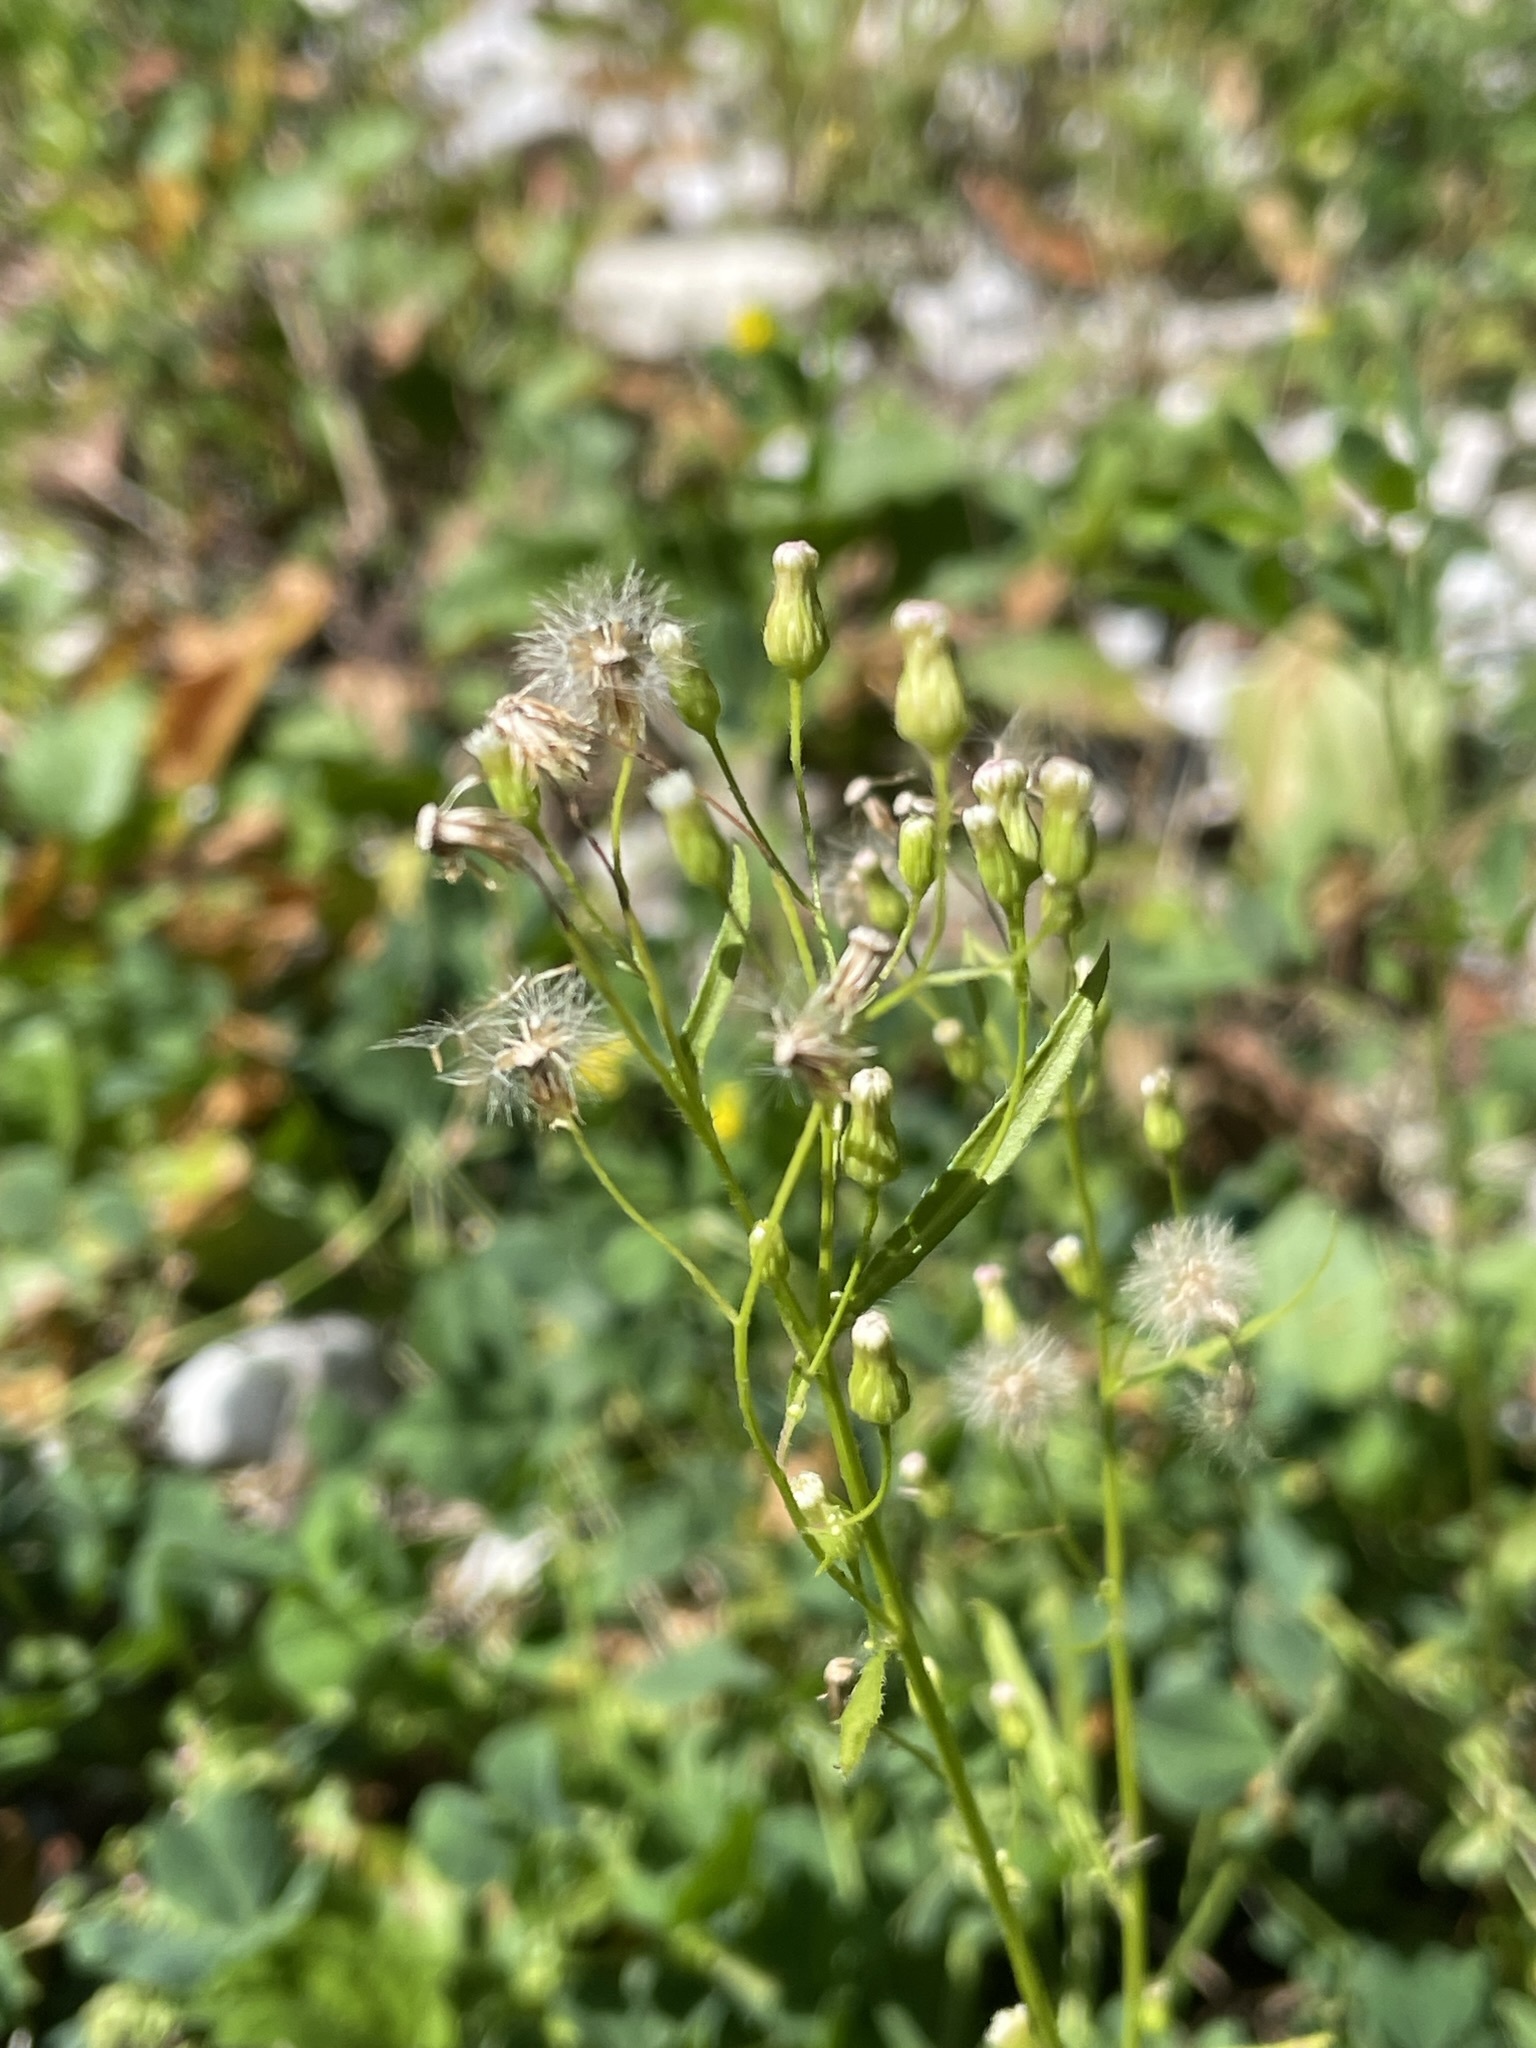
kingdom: Plantae
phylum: Tracheophyta
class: Magnoliopsida
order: Asterales
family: Asteraceae
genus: Erigeron
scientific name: Erigeron canadensis
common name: Canadian fleabane
